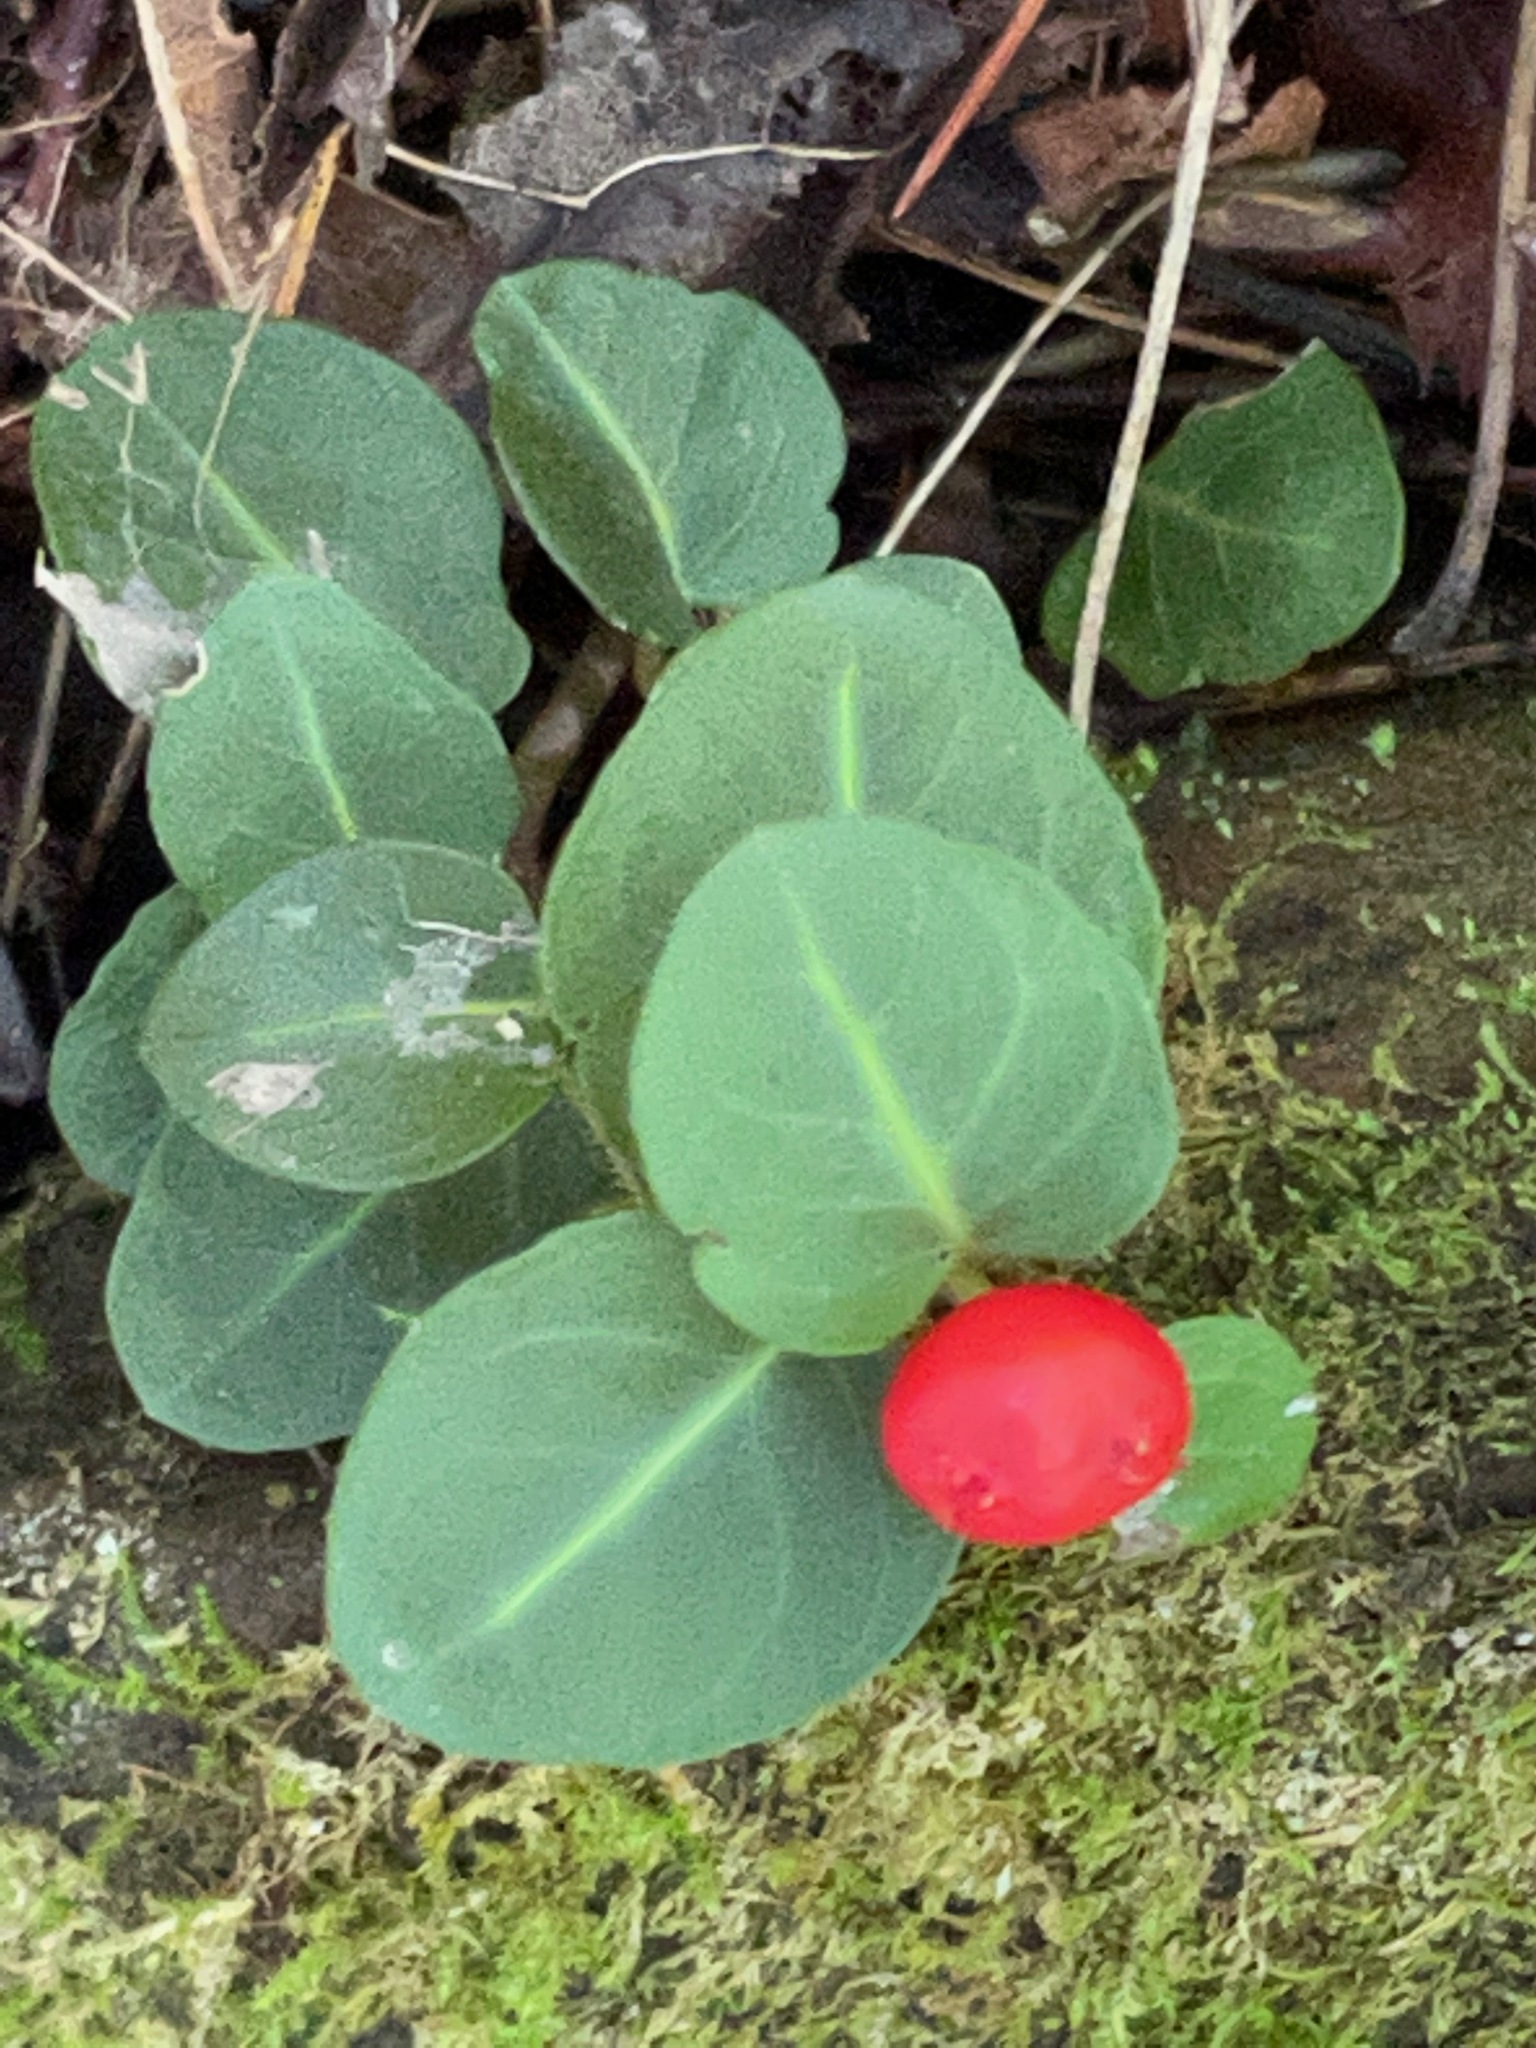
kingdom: Plantae
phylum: Tracheophyta
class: Magnoliopsida
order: Gentianales
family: Rubiaceae
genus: Mitchella
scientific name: Mitchella repens
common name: Partridge-berry
